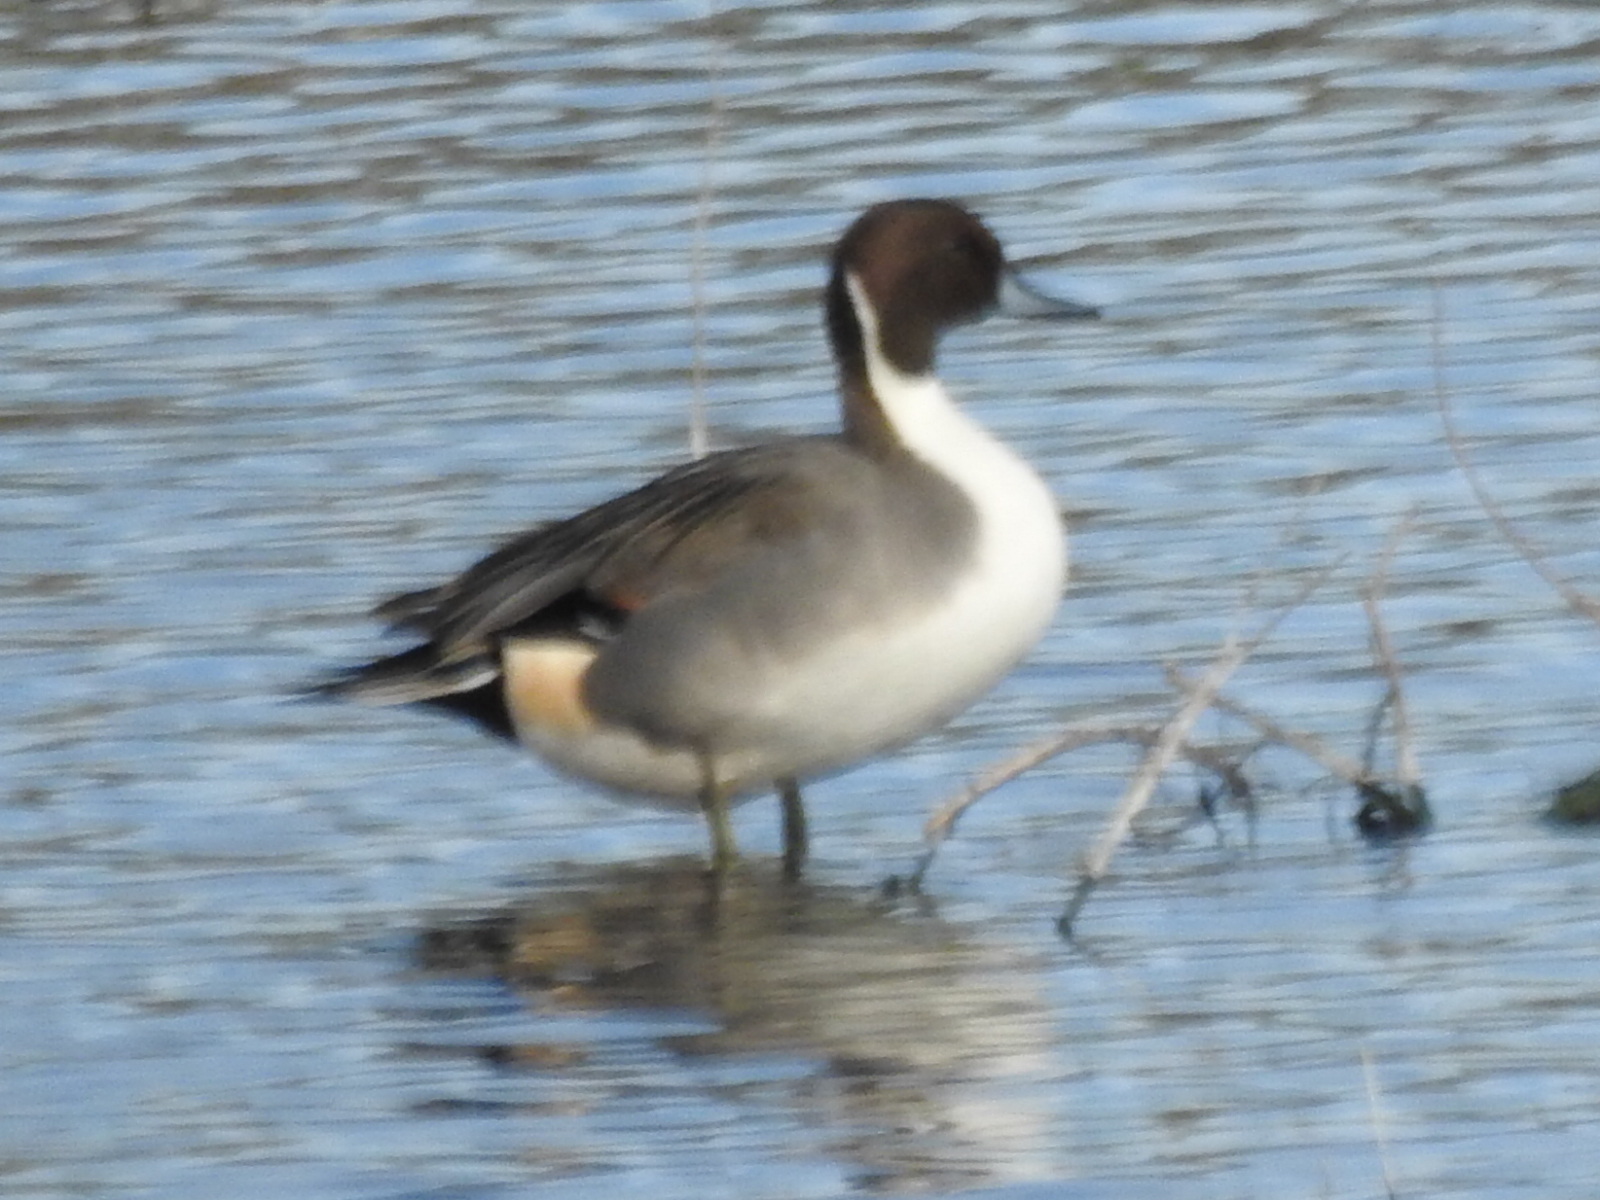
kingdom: Animalia
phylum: Chordata
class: Aves
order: Anseriformes
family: Anatidae
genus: Anas
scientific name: Anas acuta
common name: Northern pintail
